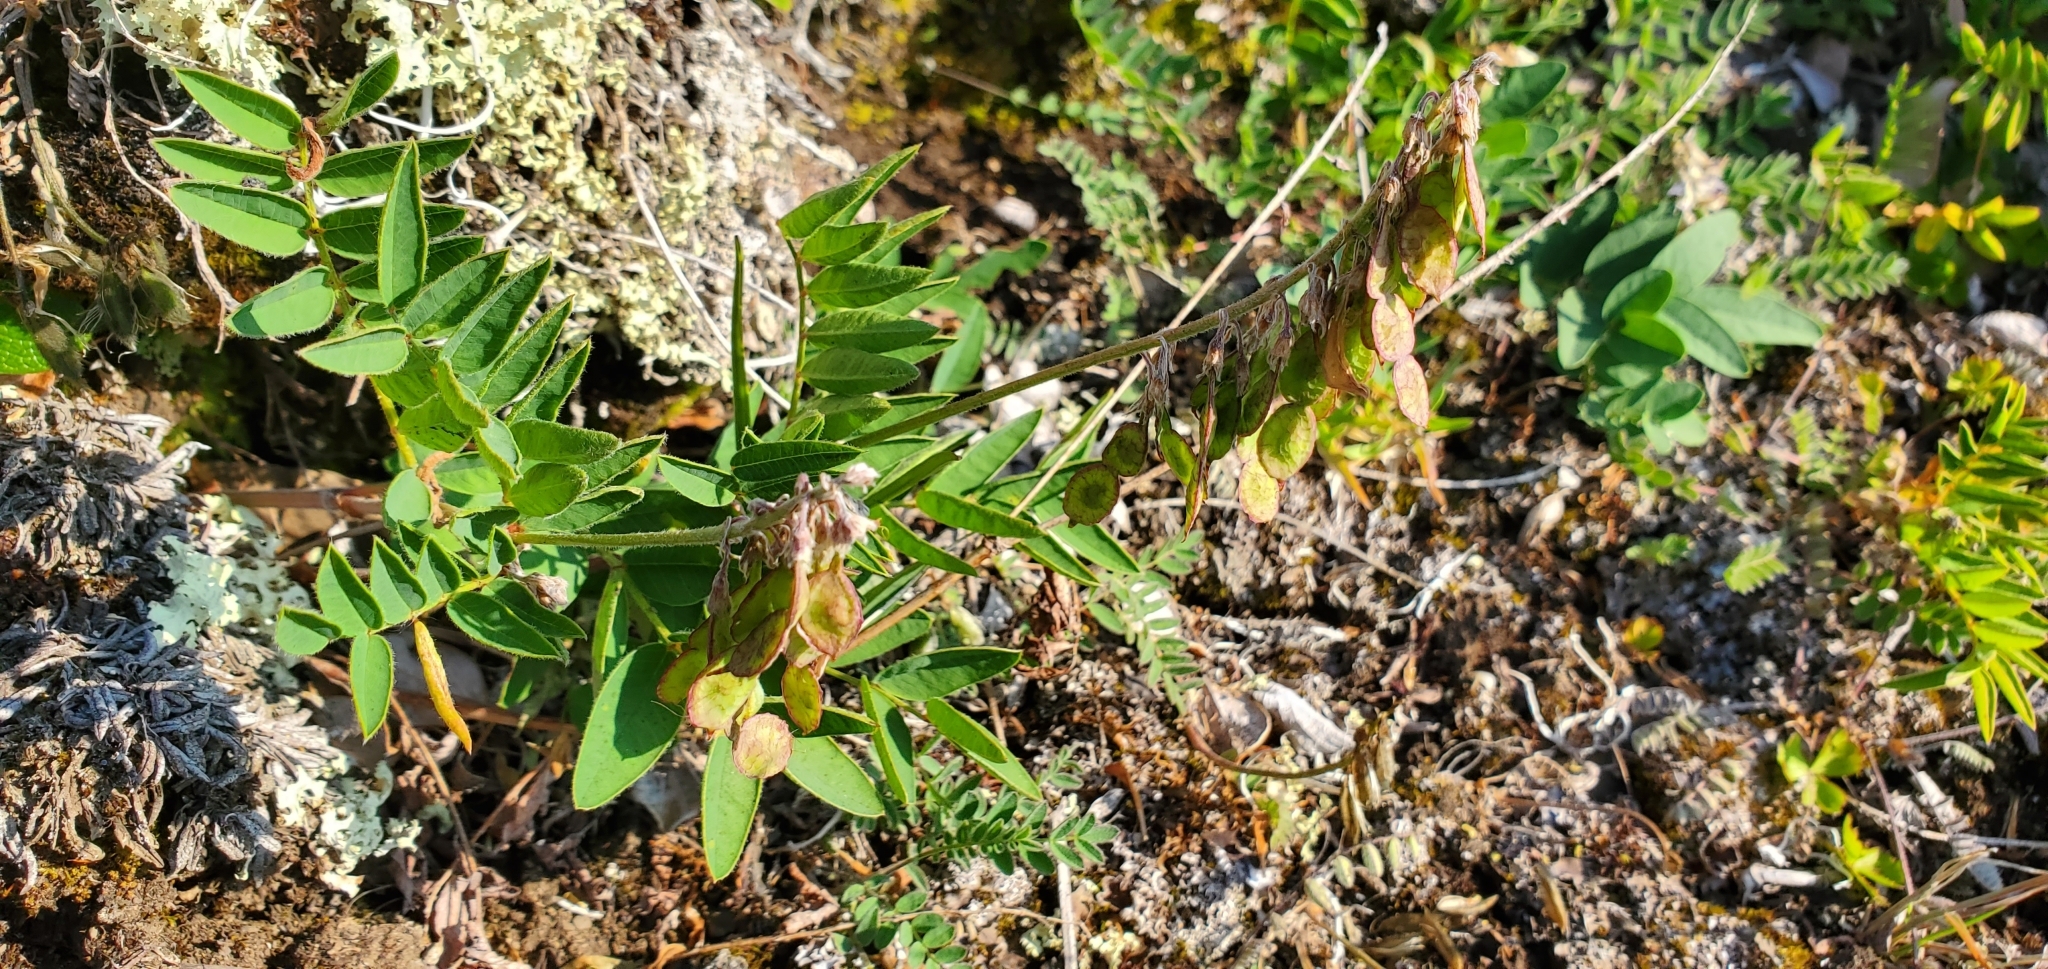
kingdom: Plantae
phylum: Tracheophyta
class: Magnoliopsida
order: Fabales
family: Fabaceae
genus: Hedysarum
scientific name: Hedysarum alpinum
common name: Alpine sweet-vetch
